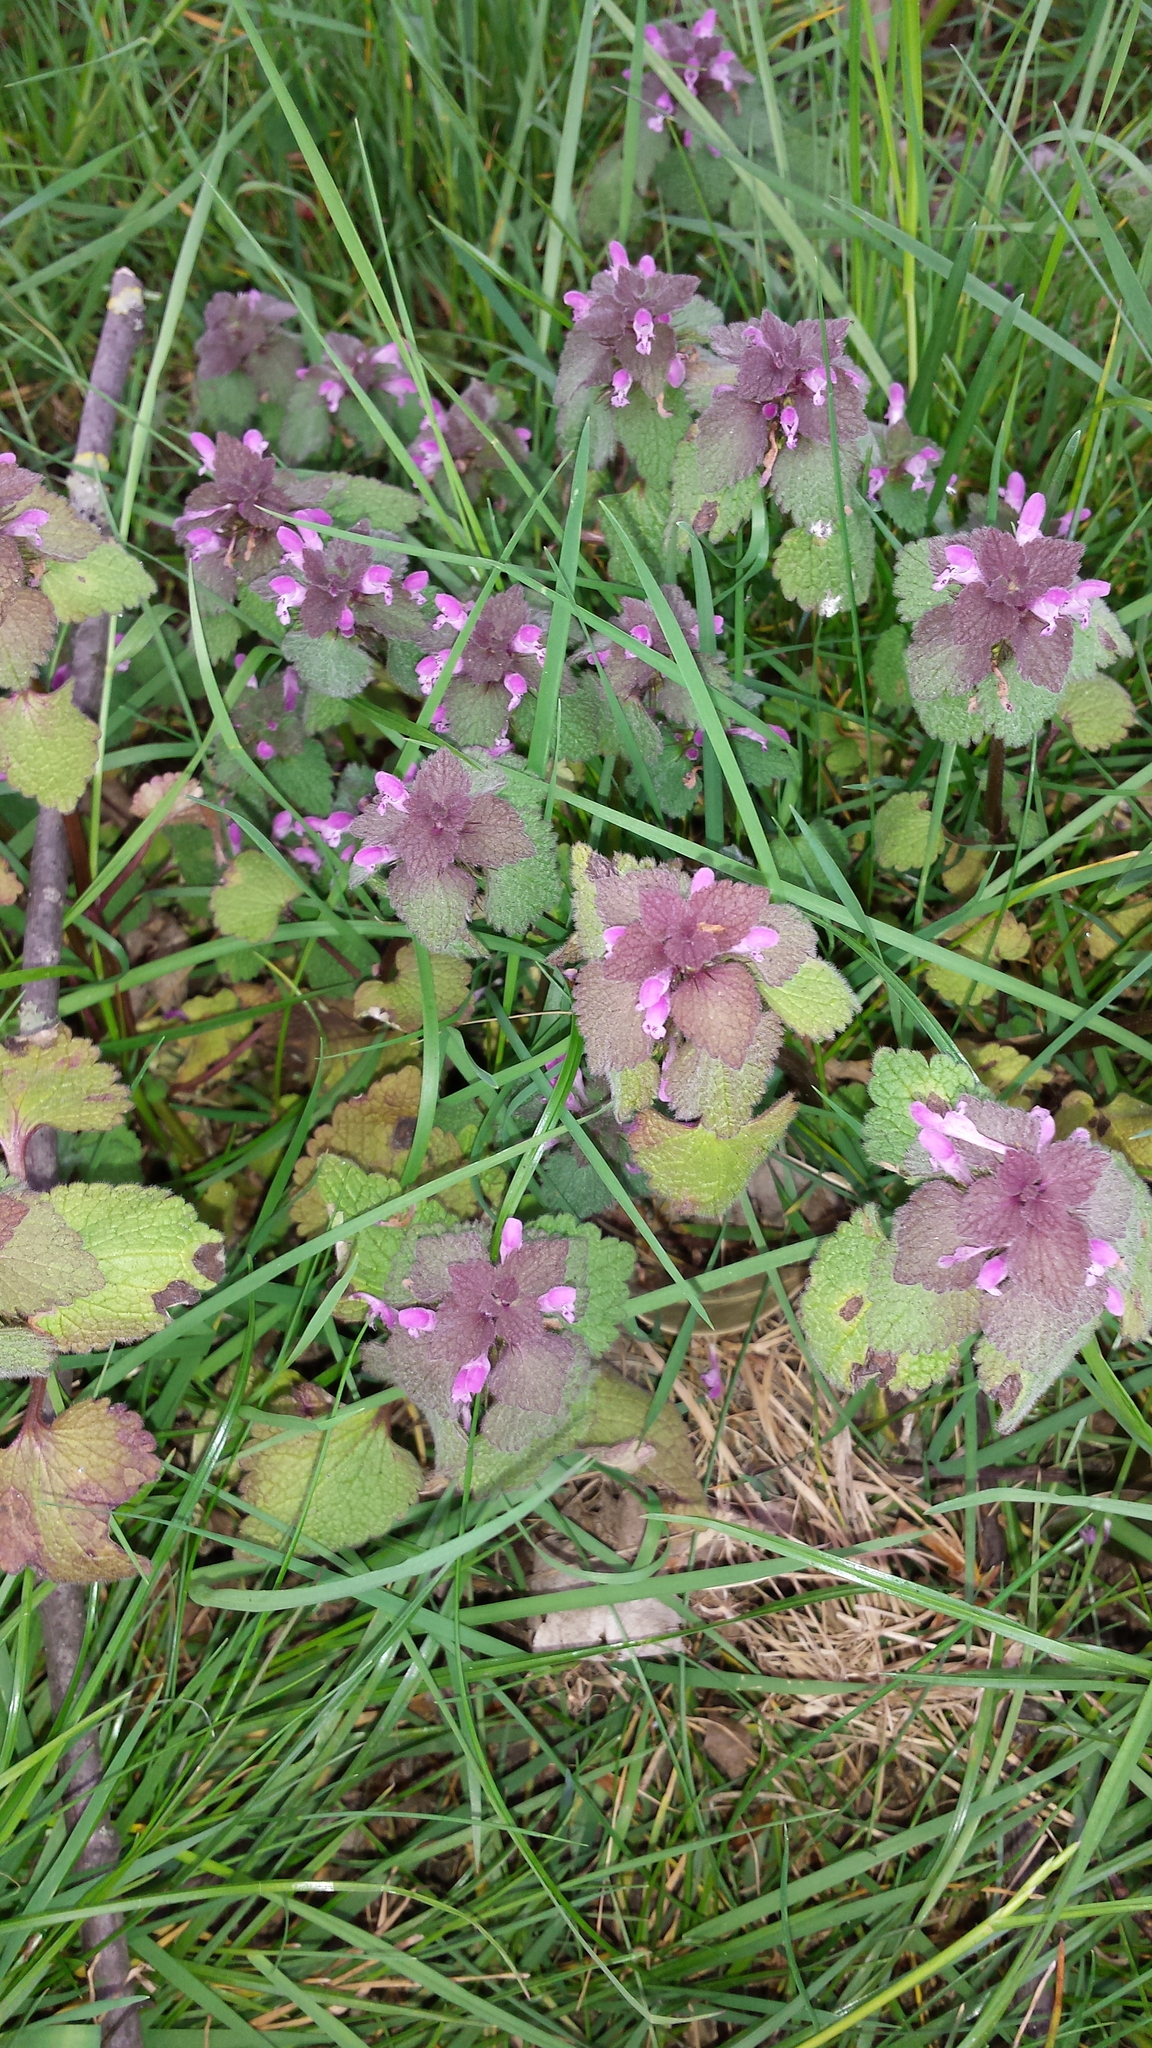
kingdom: Plantae
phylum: Tracheophyta
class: Magnoliopsida
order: Lamiales
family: Lamiaceae
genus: Lamium
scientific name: Lamium purpureum
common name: Red dead-nettle
